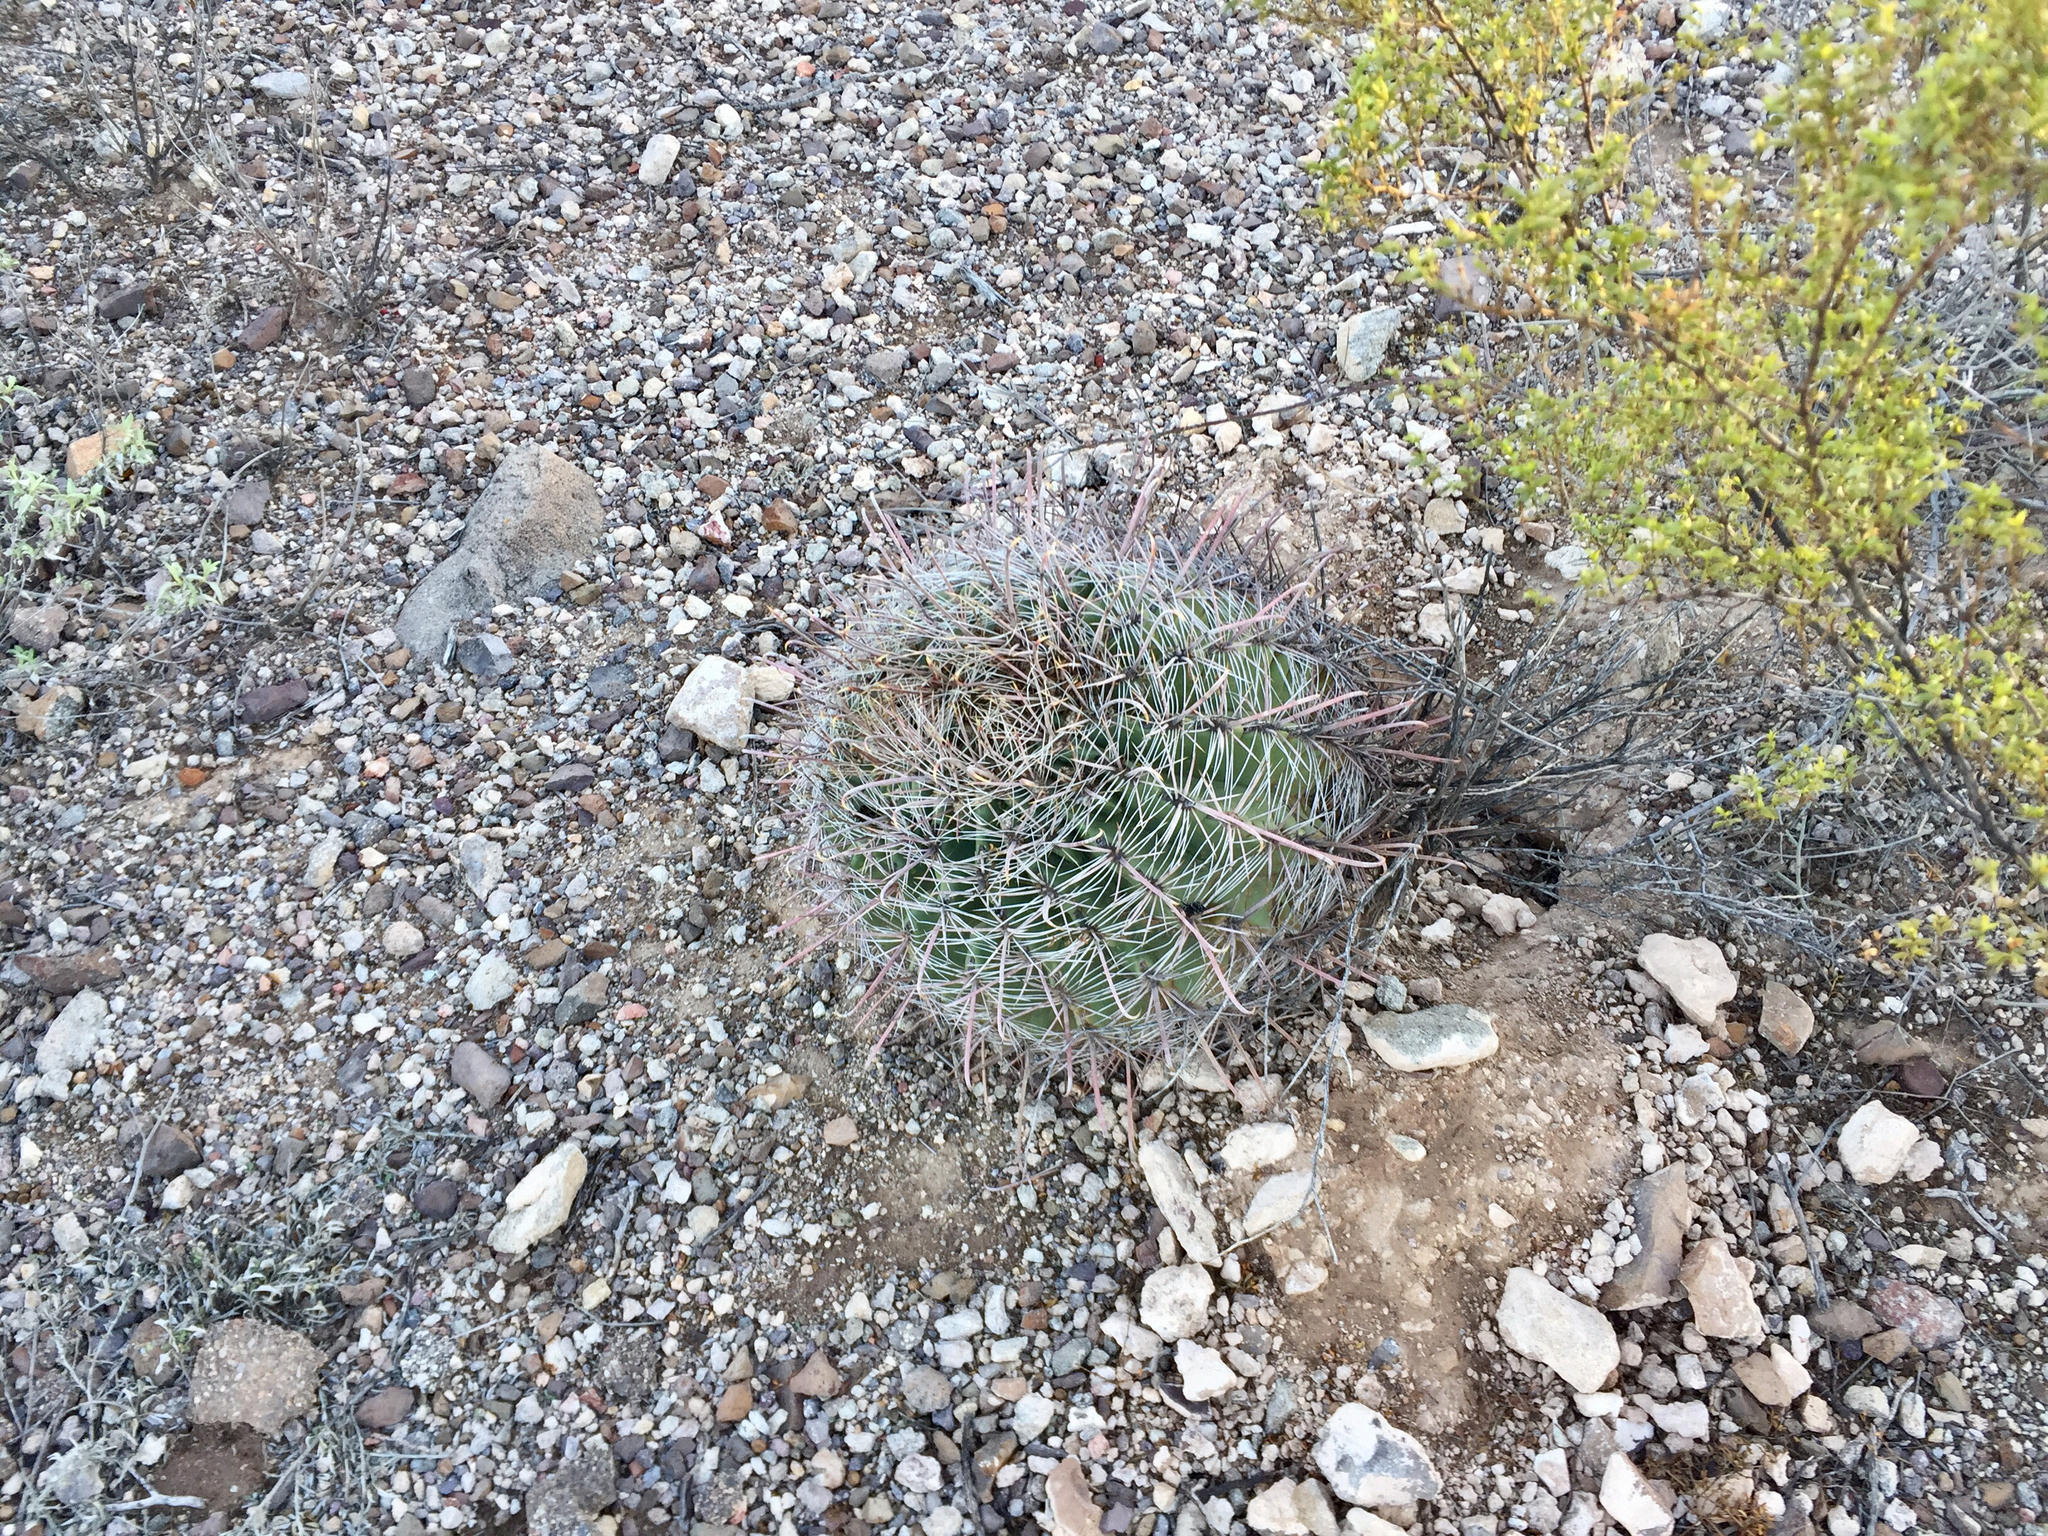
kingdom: Plantae
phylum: Tracheophyta
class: Magnoliopsida
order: Caryophyllales
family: Cactaceae
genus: Ferocactus
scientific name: Ferocactus wislizeni
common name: Candy barrel cactus
